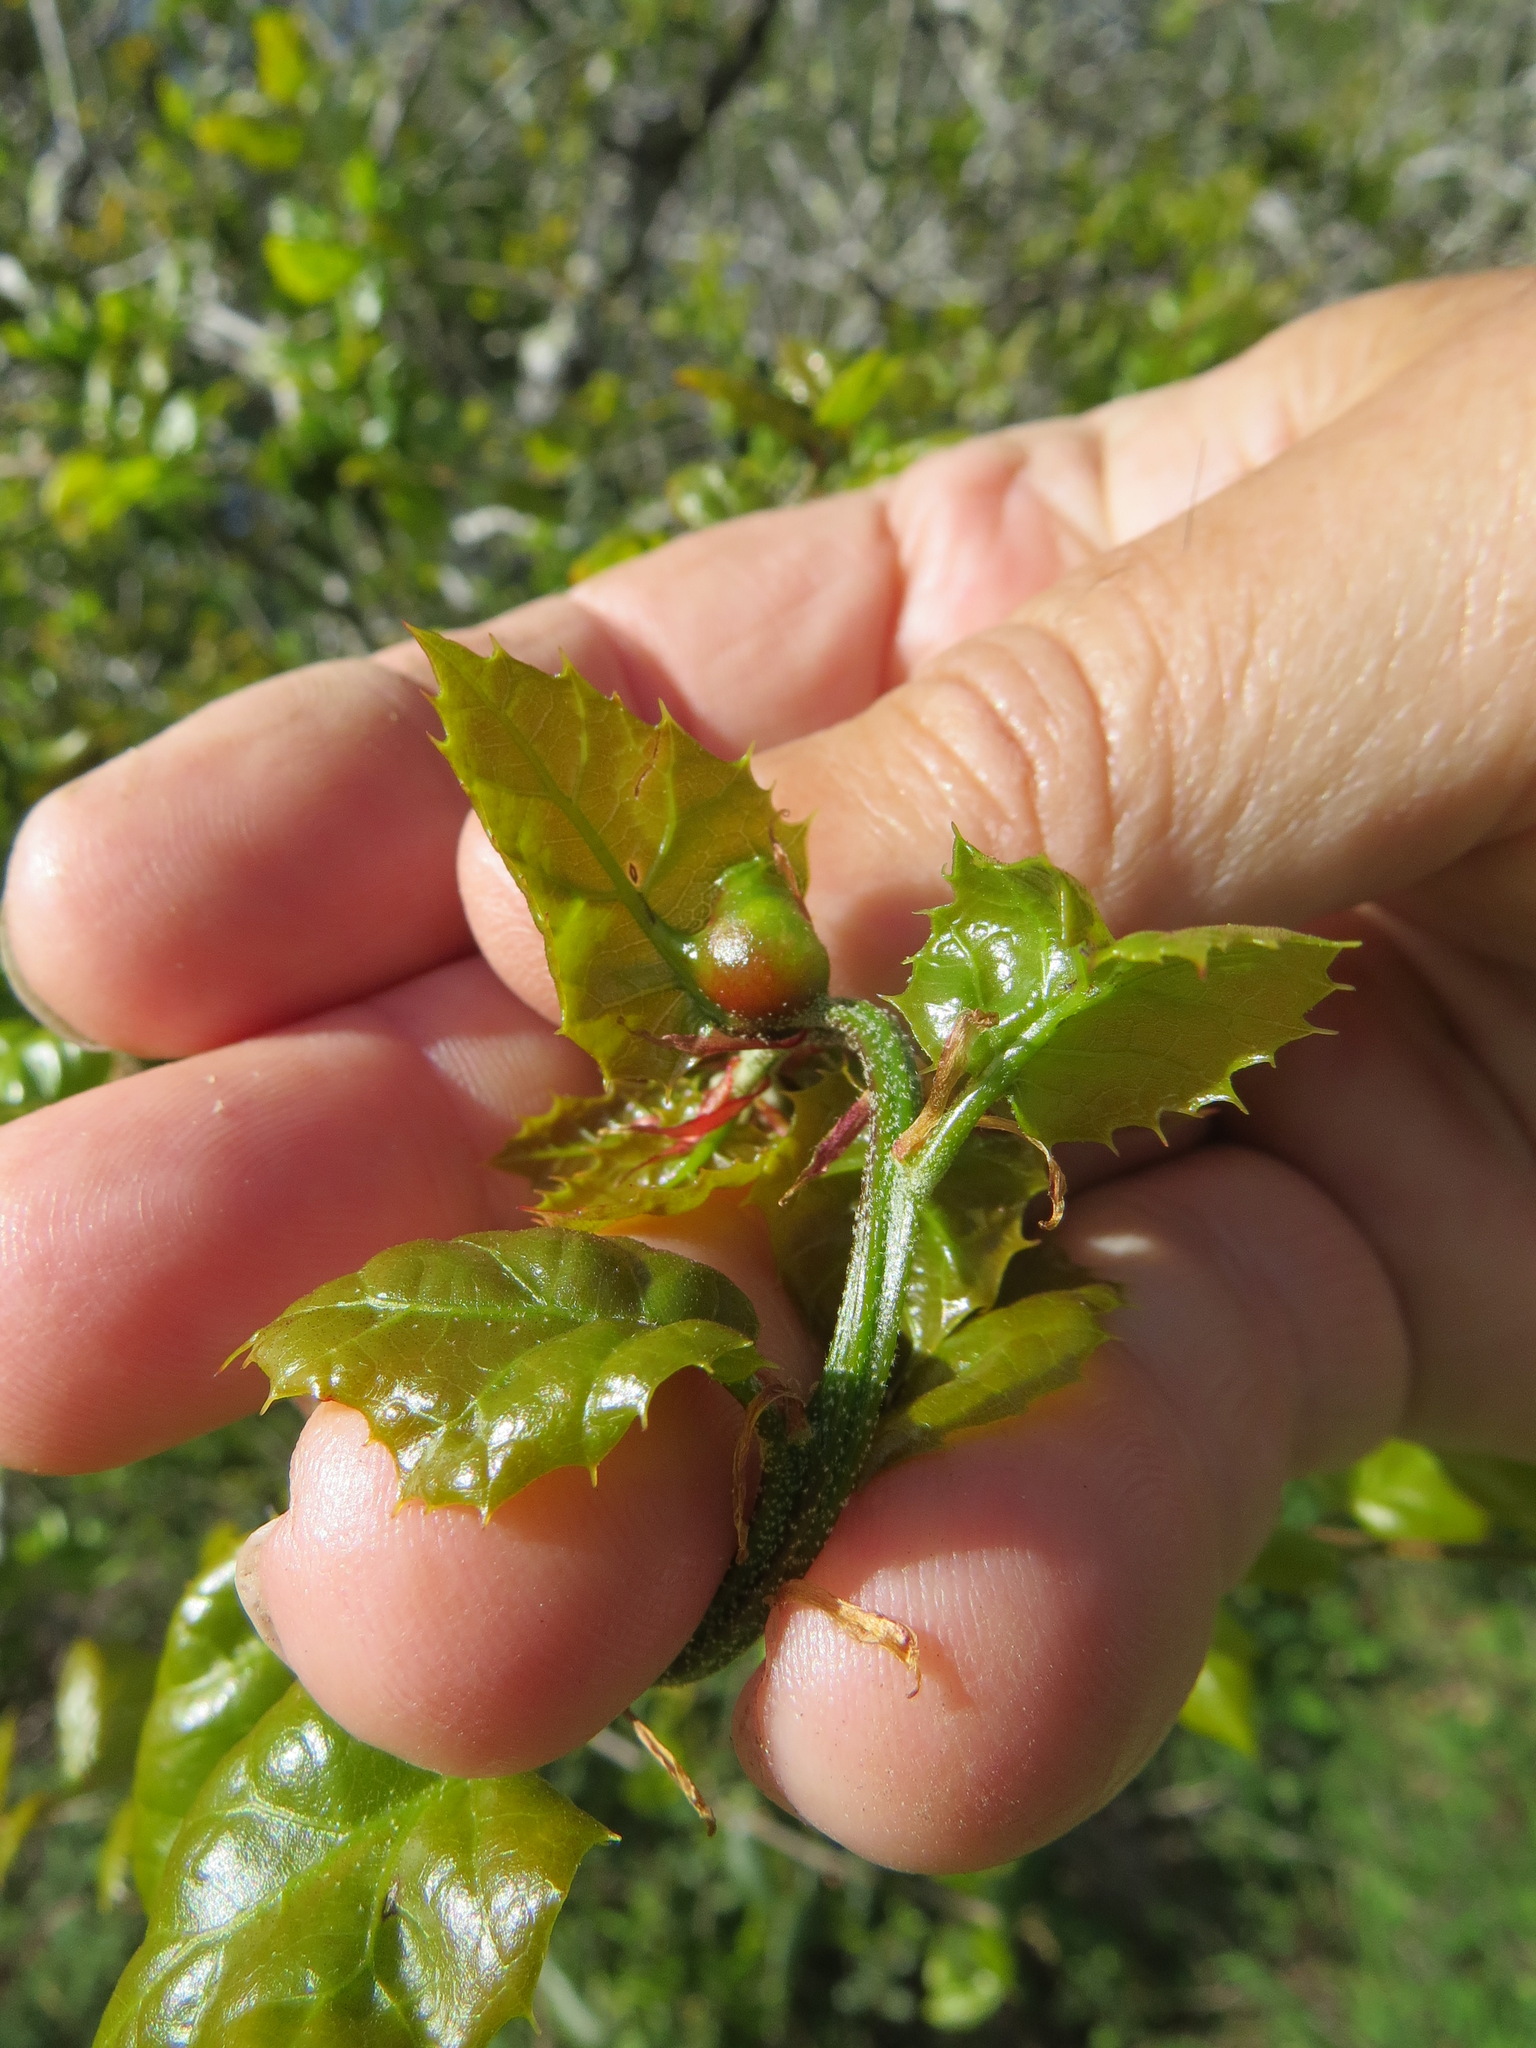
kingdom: Animalia
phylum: Arthropoda
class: Insecta
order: Hymenoptera
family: Cynipidae
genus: Callirhytis
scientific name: Callirhytis
